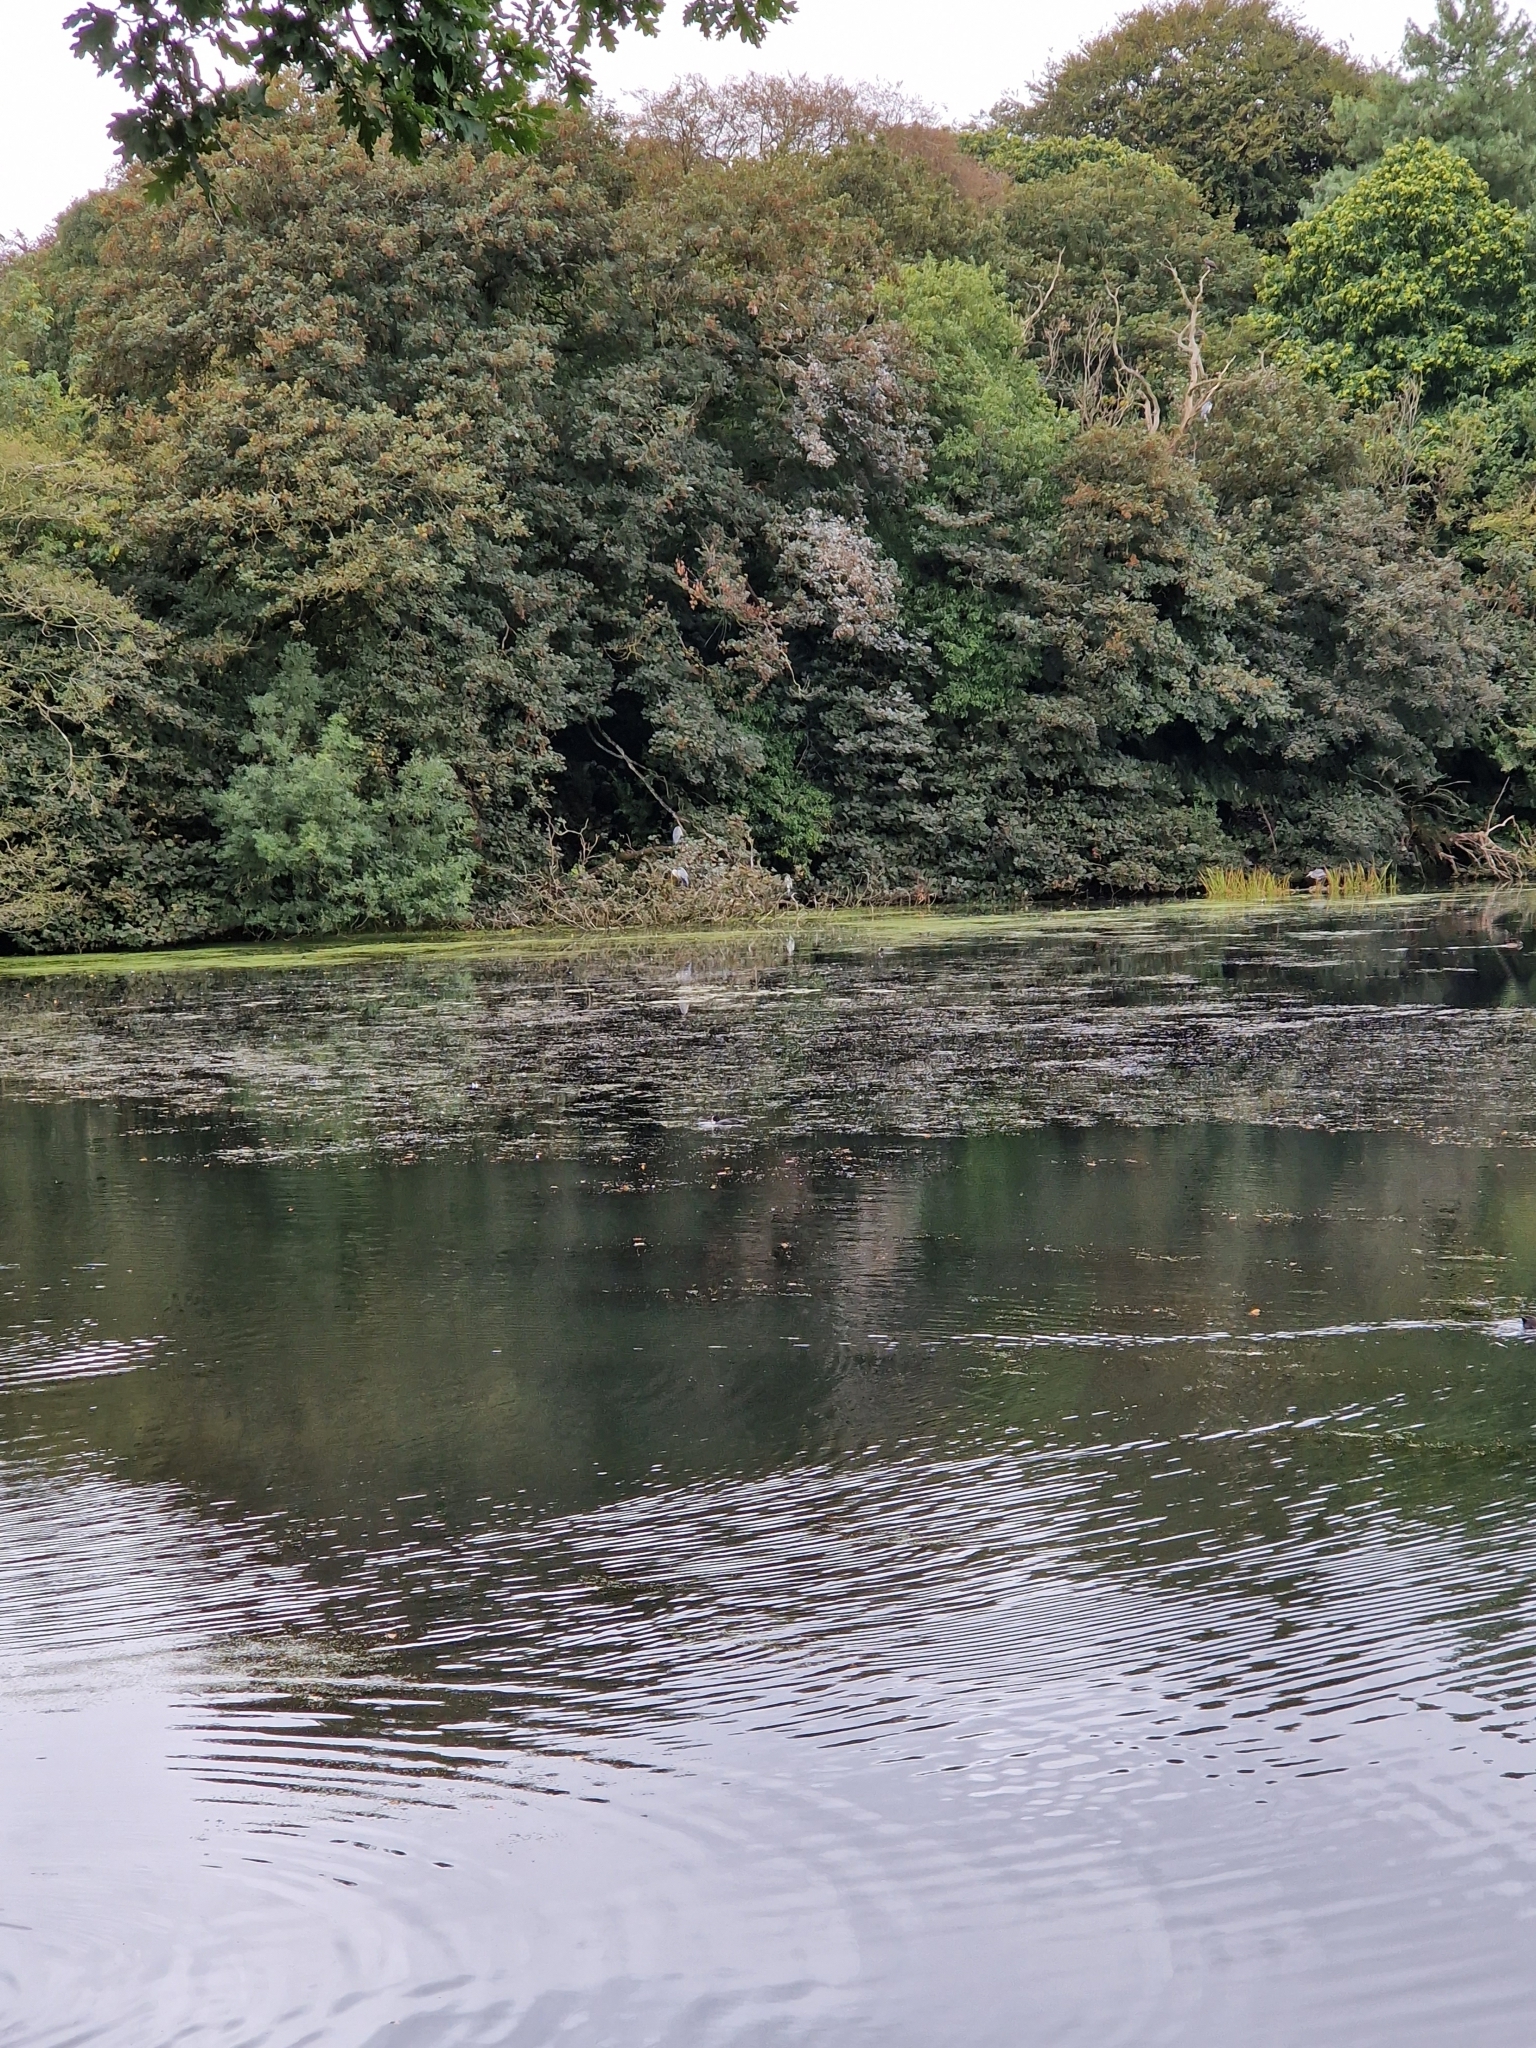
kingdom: Animalia
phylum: Chordata
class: Aves
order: Pelecaniformes
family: Ardeidae
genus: Ardea
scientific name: Ardea cinerea
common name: Grey heron
